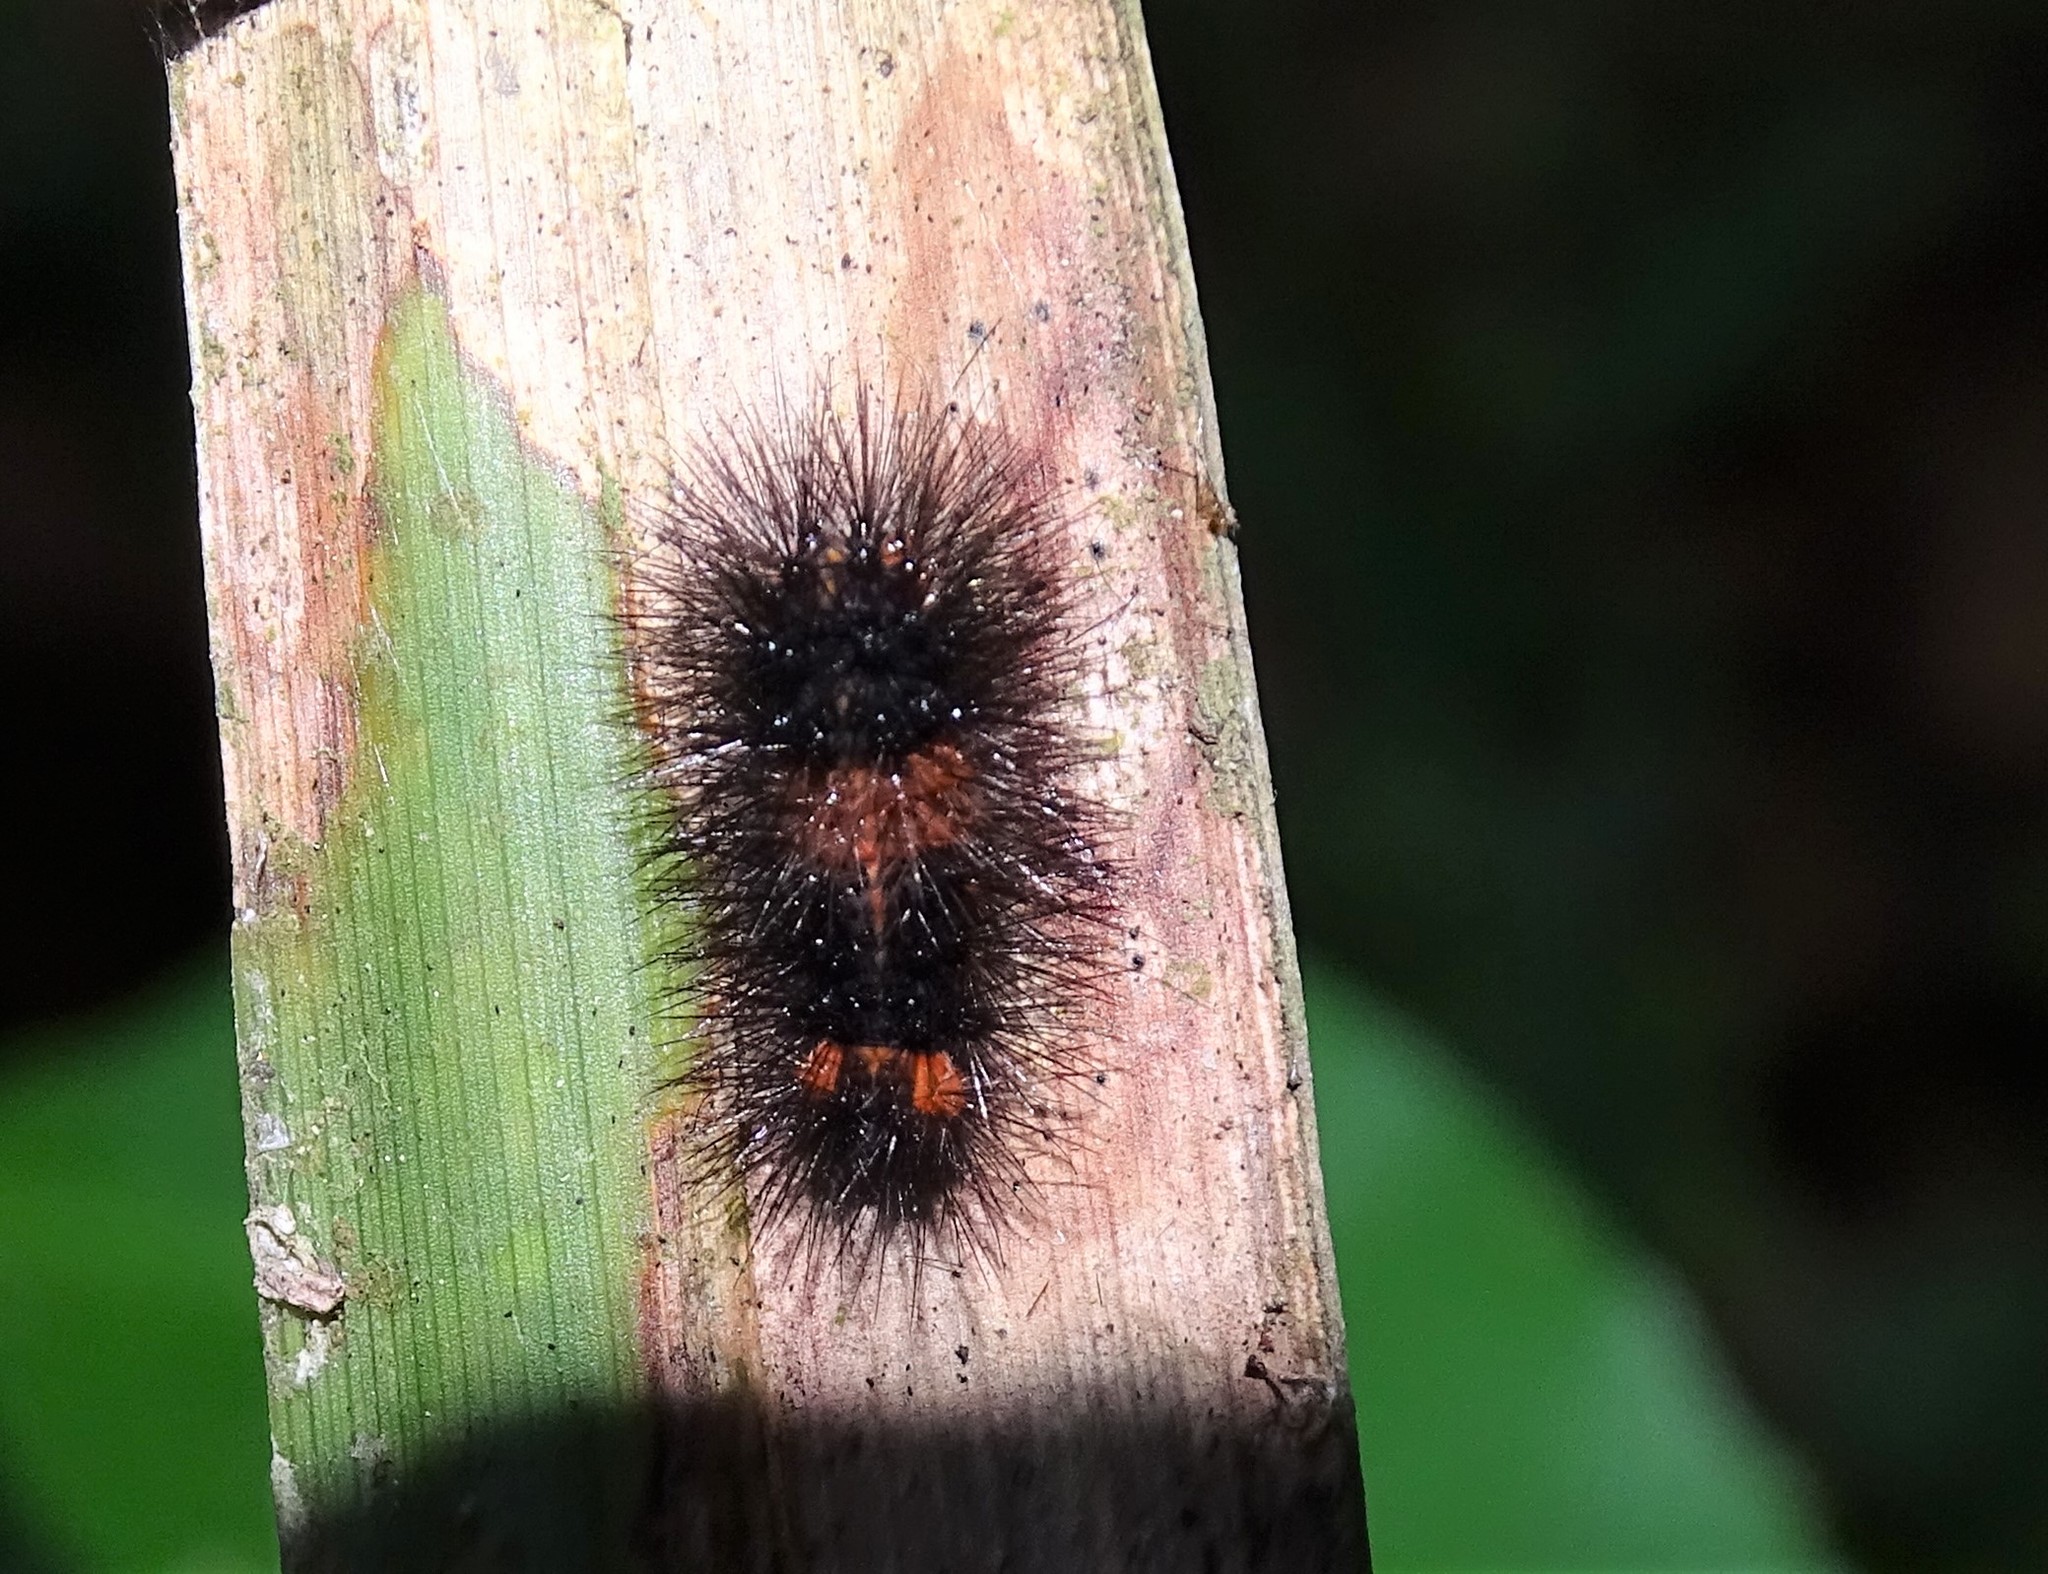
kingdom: Animalia
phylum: Arthropoda
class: Insecta
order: Lepidoptera
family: Erebidae
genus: Hypercompe
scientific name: Hypercompe scribonia
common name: Giant leopard moth
